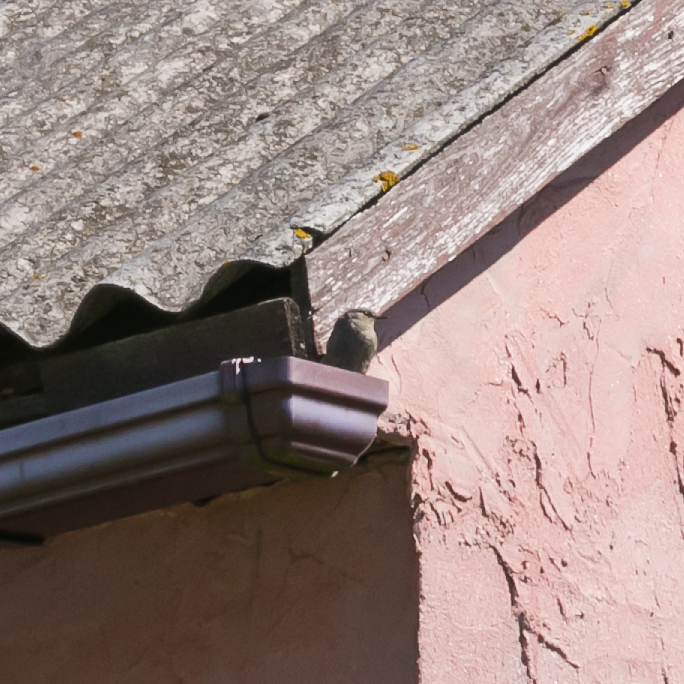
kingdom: Animalia
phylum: Chordata
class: Aves
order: Passeriformes
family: Muscicapidae
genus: Phoenicurus
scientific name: Phoenicurus ochruros
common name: Black redstart
